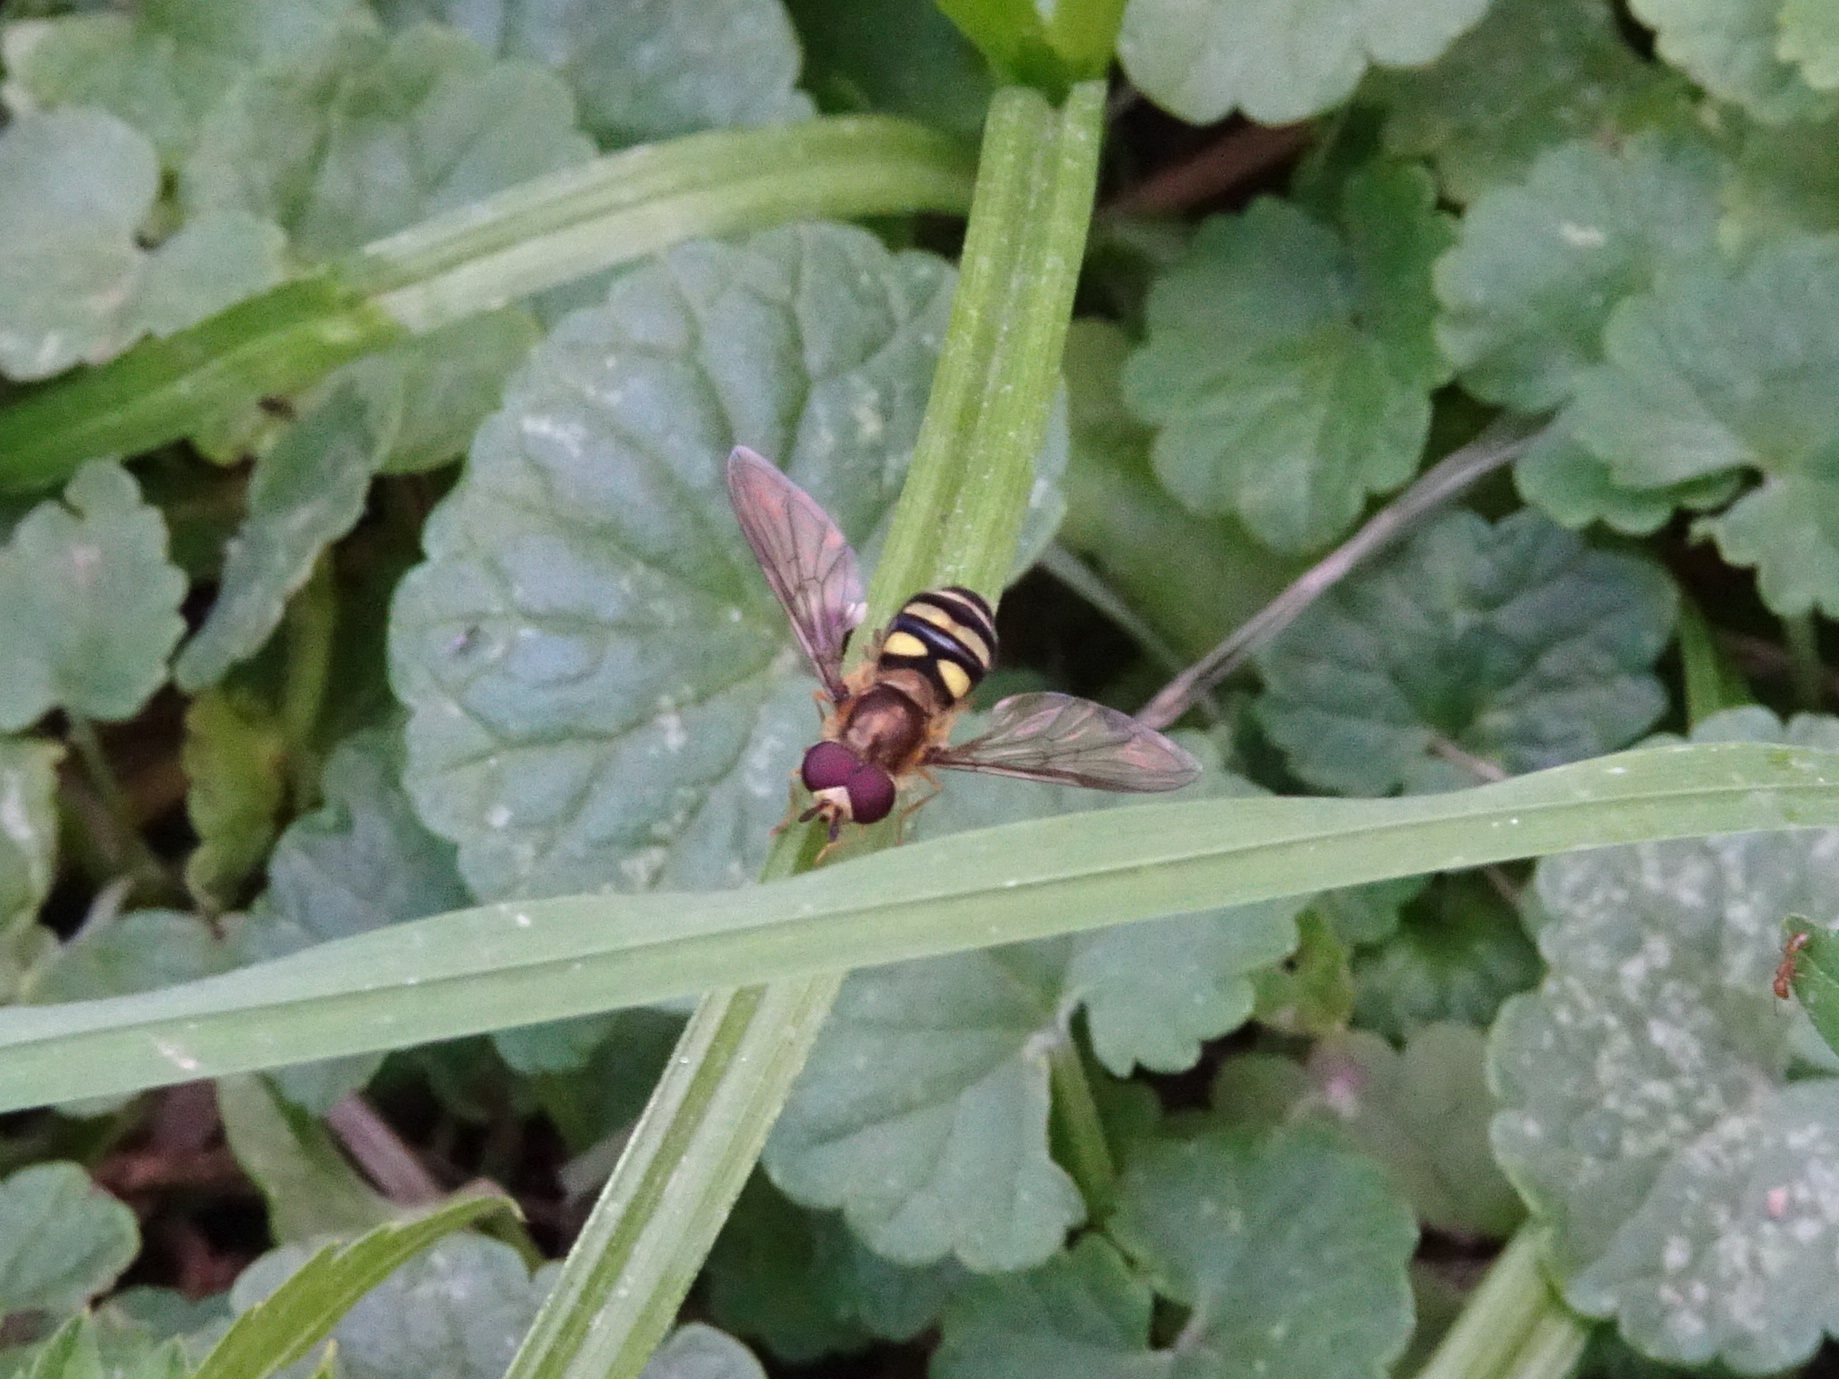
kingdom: Animalia
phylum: Arthropoda
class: Insecta
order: Diptera
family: Syrphidae
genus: Eupeodes
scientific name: Eupeodes
